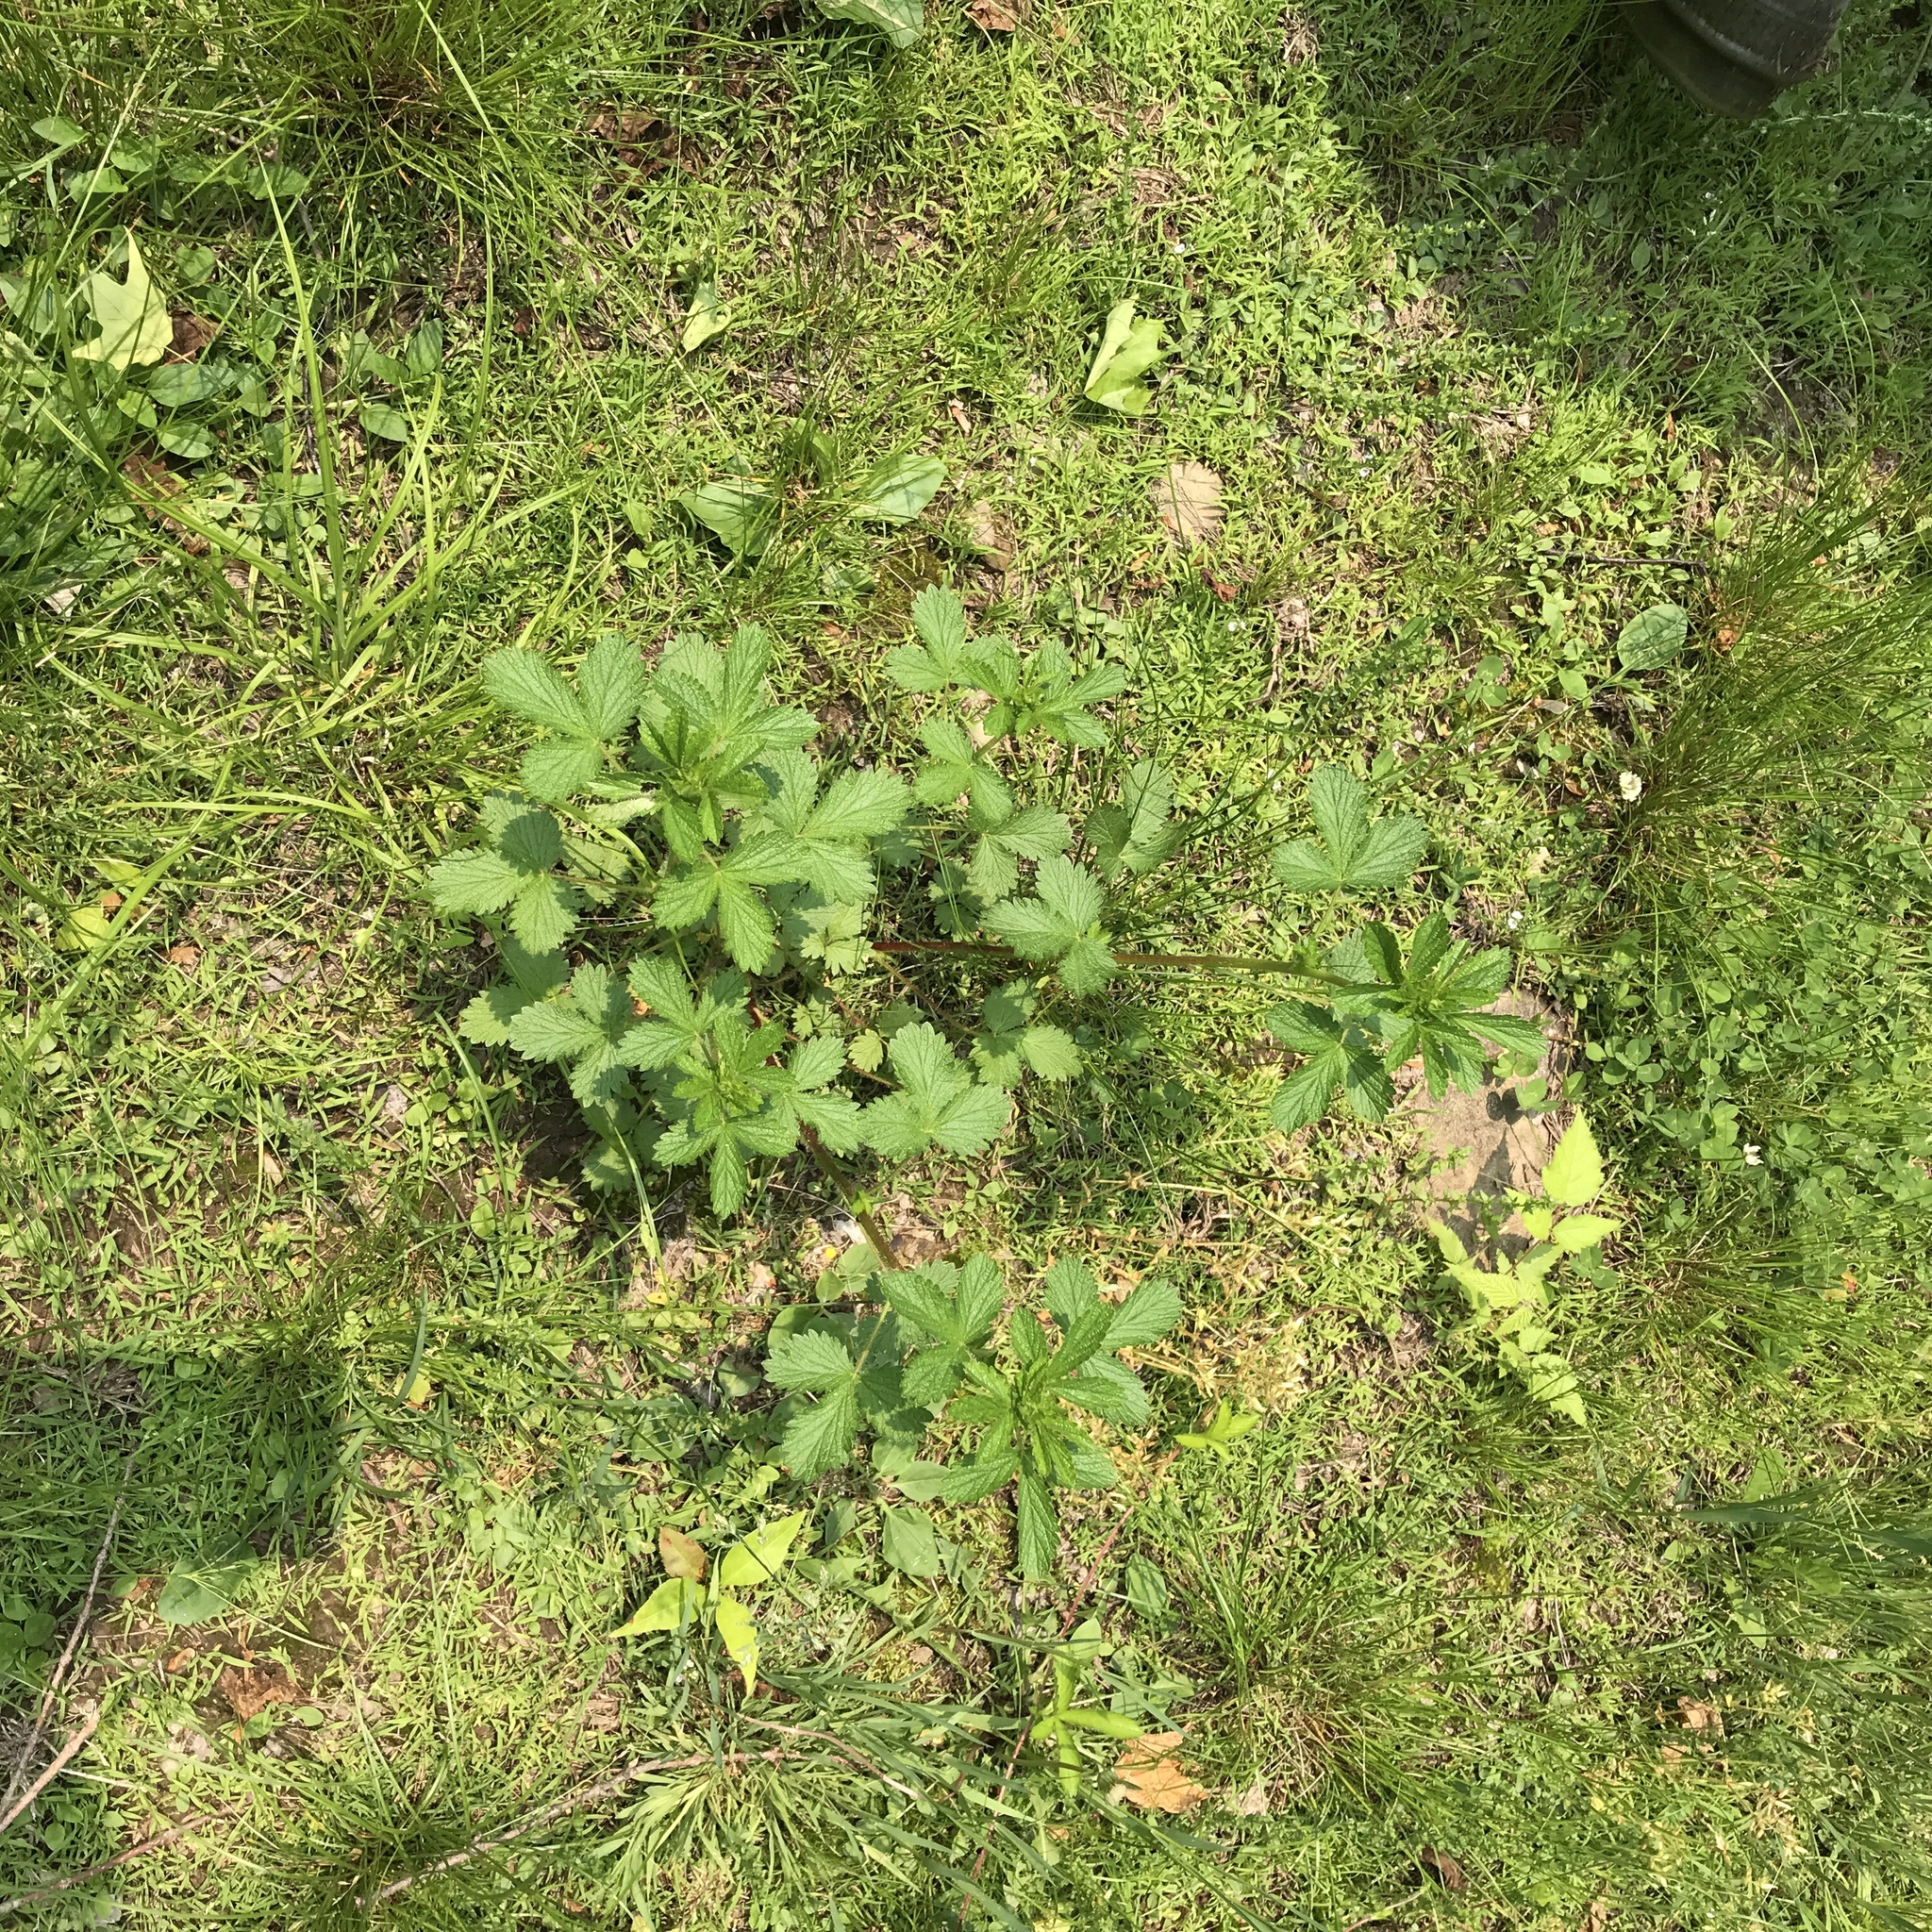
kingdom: Plantae
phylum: Tracheophyta
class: Magnoliopsida
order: Rosales
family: Rosaceae
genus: Potentilla
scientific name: Potentilla norvegica
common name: Ternate-leaved cinquefoil
